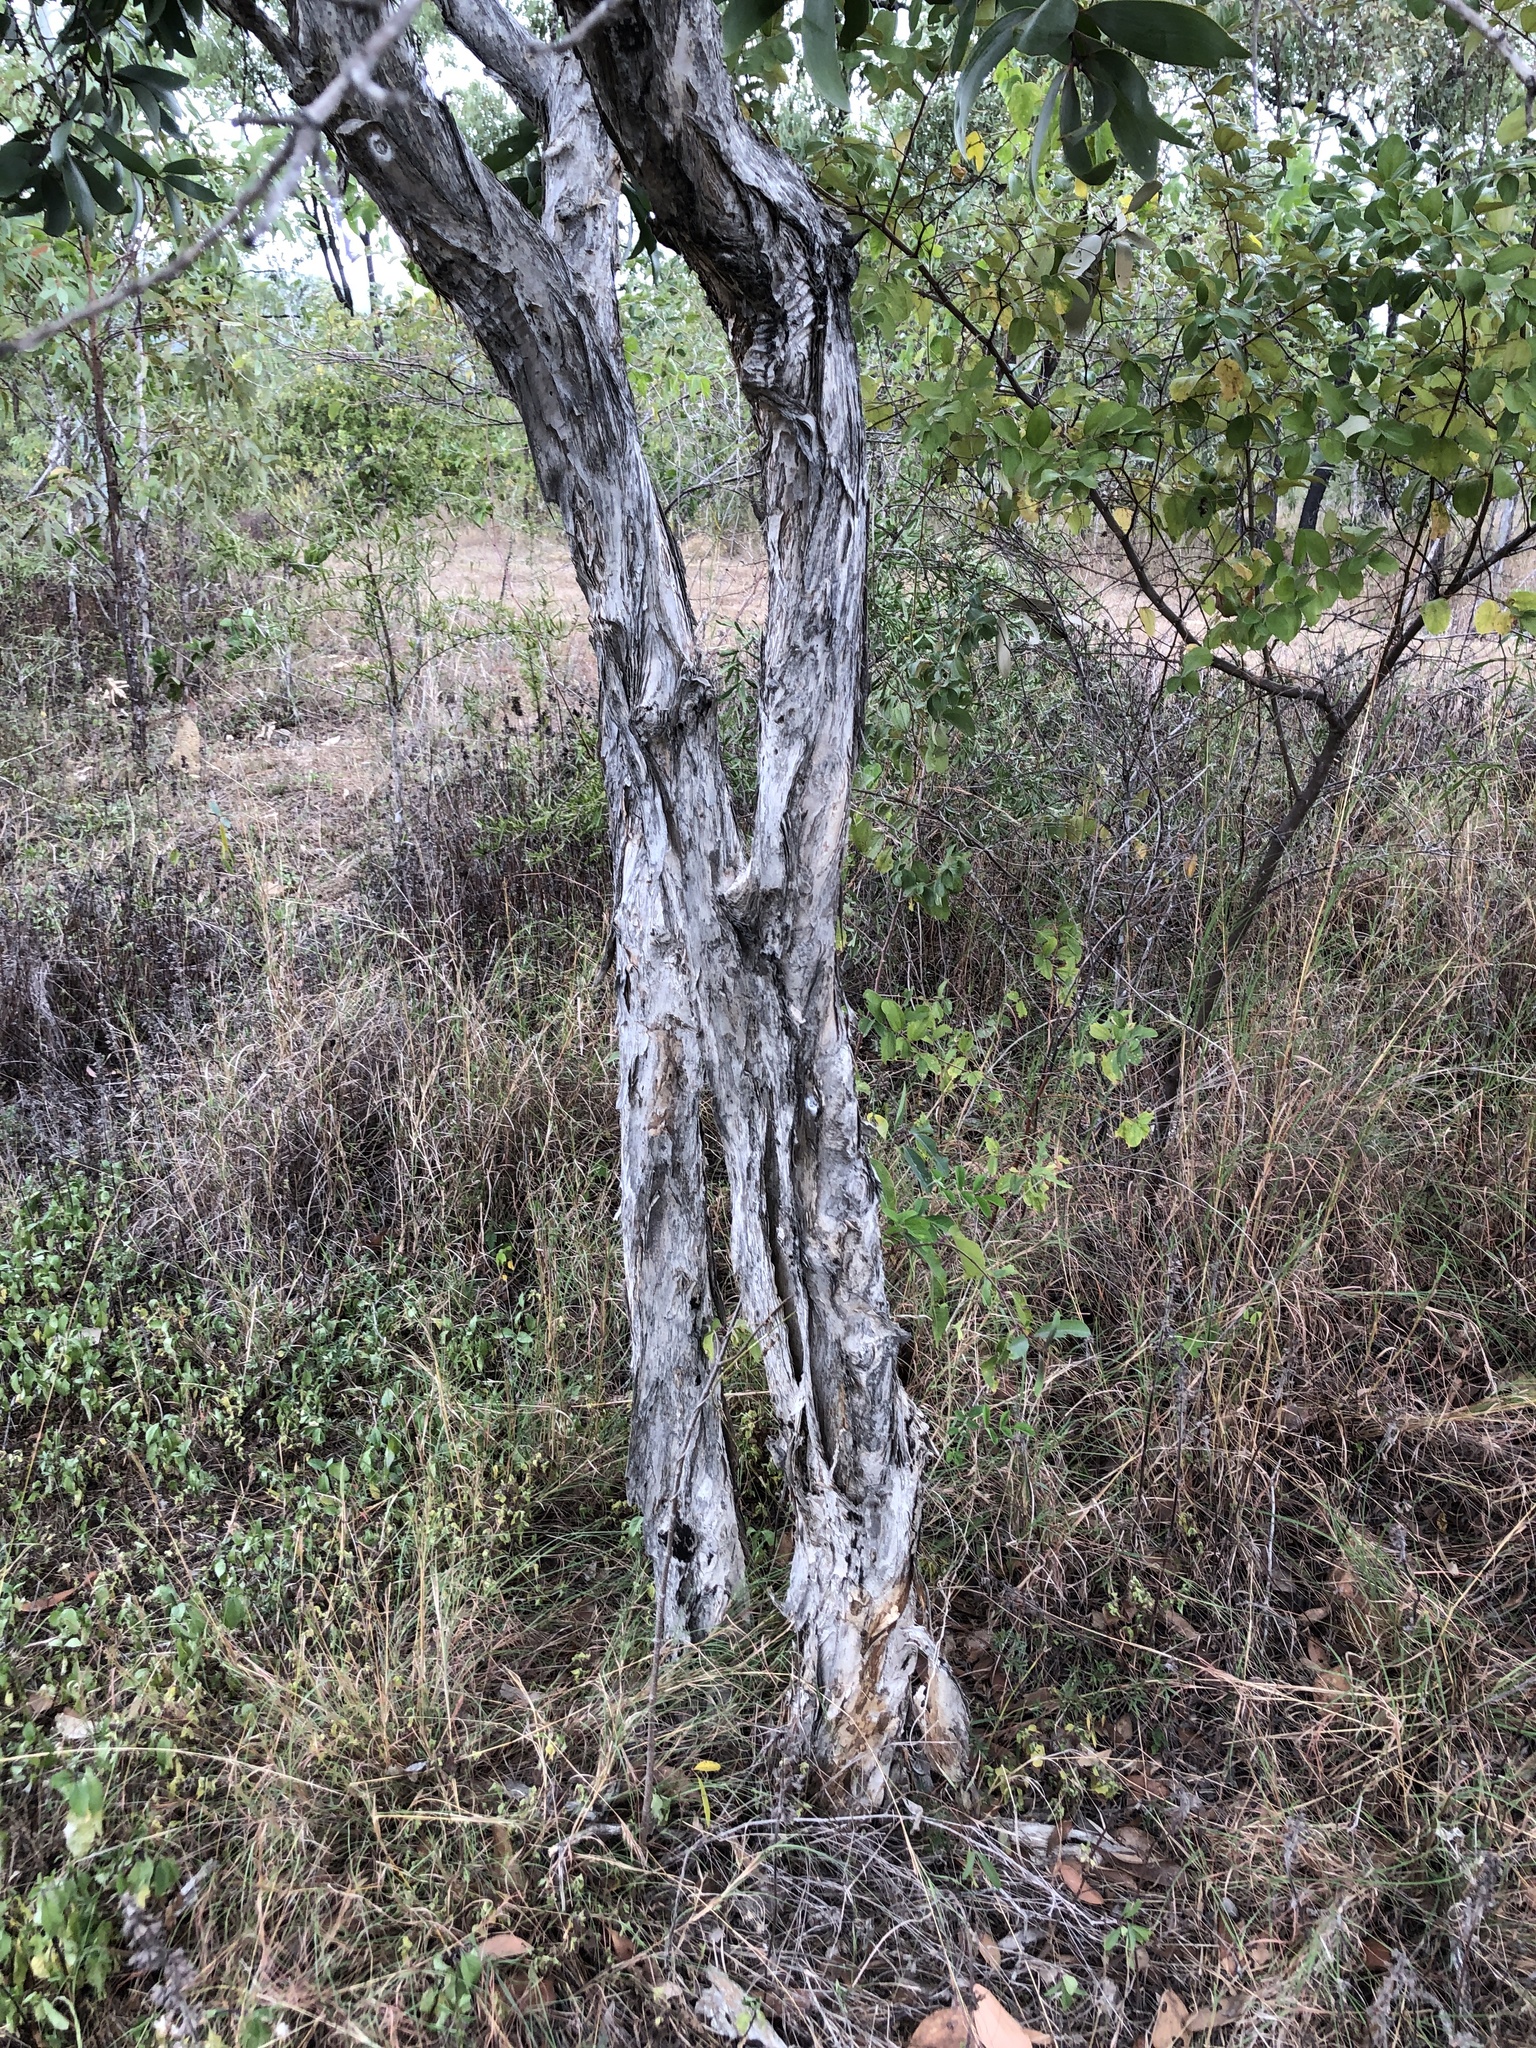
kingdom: Plantae
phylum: Tracheophyta
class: Magnoliopsida
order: Myrtales
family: Myrtaceae
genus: Melaleuca
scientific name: Melaleuca viridiflora
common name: Brown-leaved paperbark
